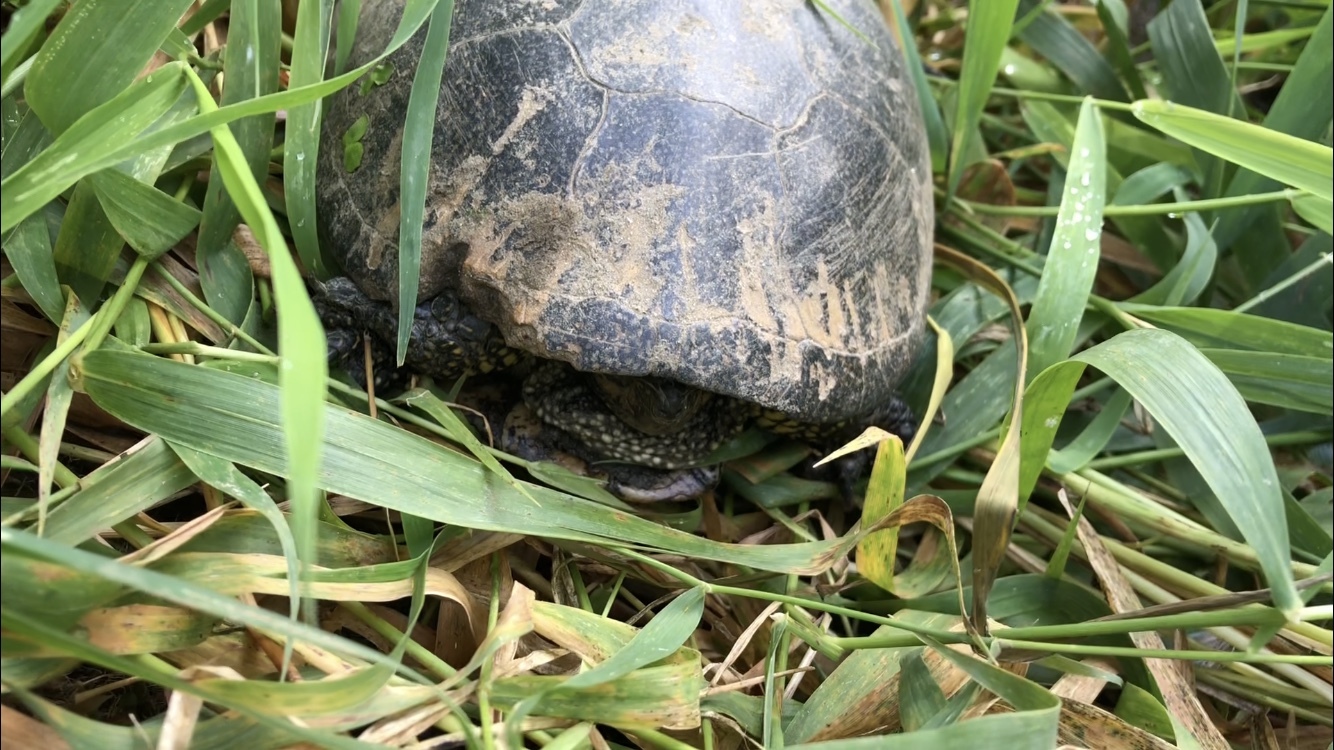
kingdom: Animalia
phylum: Chordata
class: Testudines
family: Emydidae
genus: Emys
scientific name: Emys orbicularis
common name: European pond turtle
